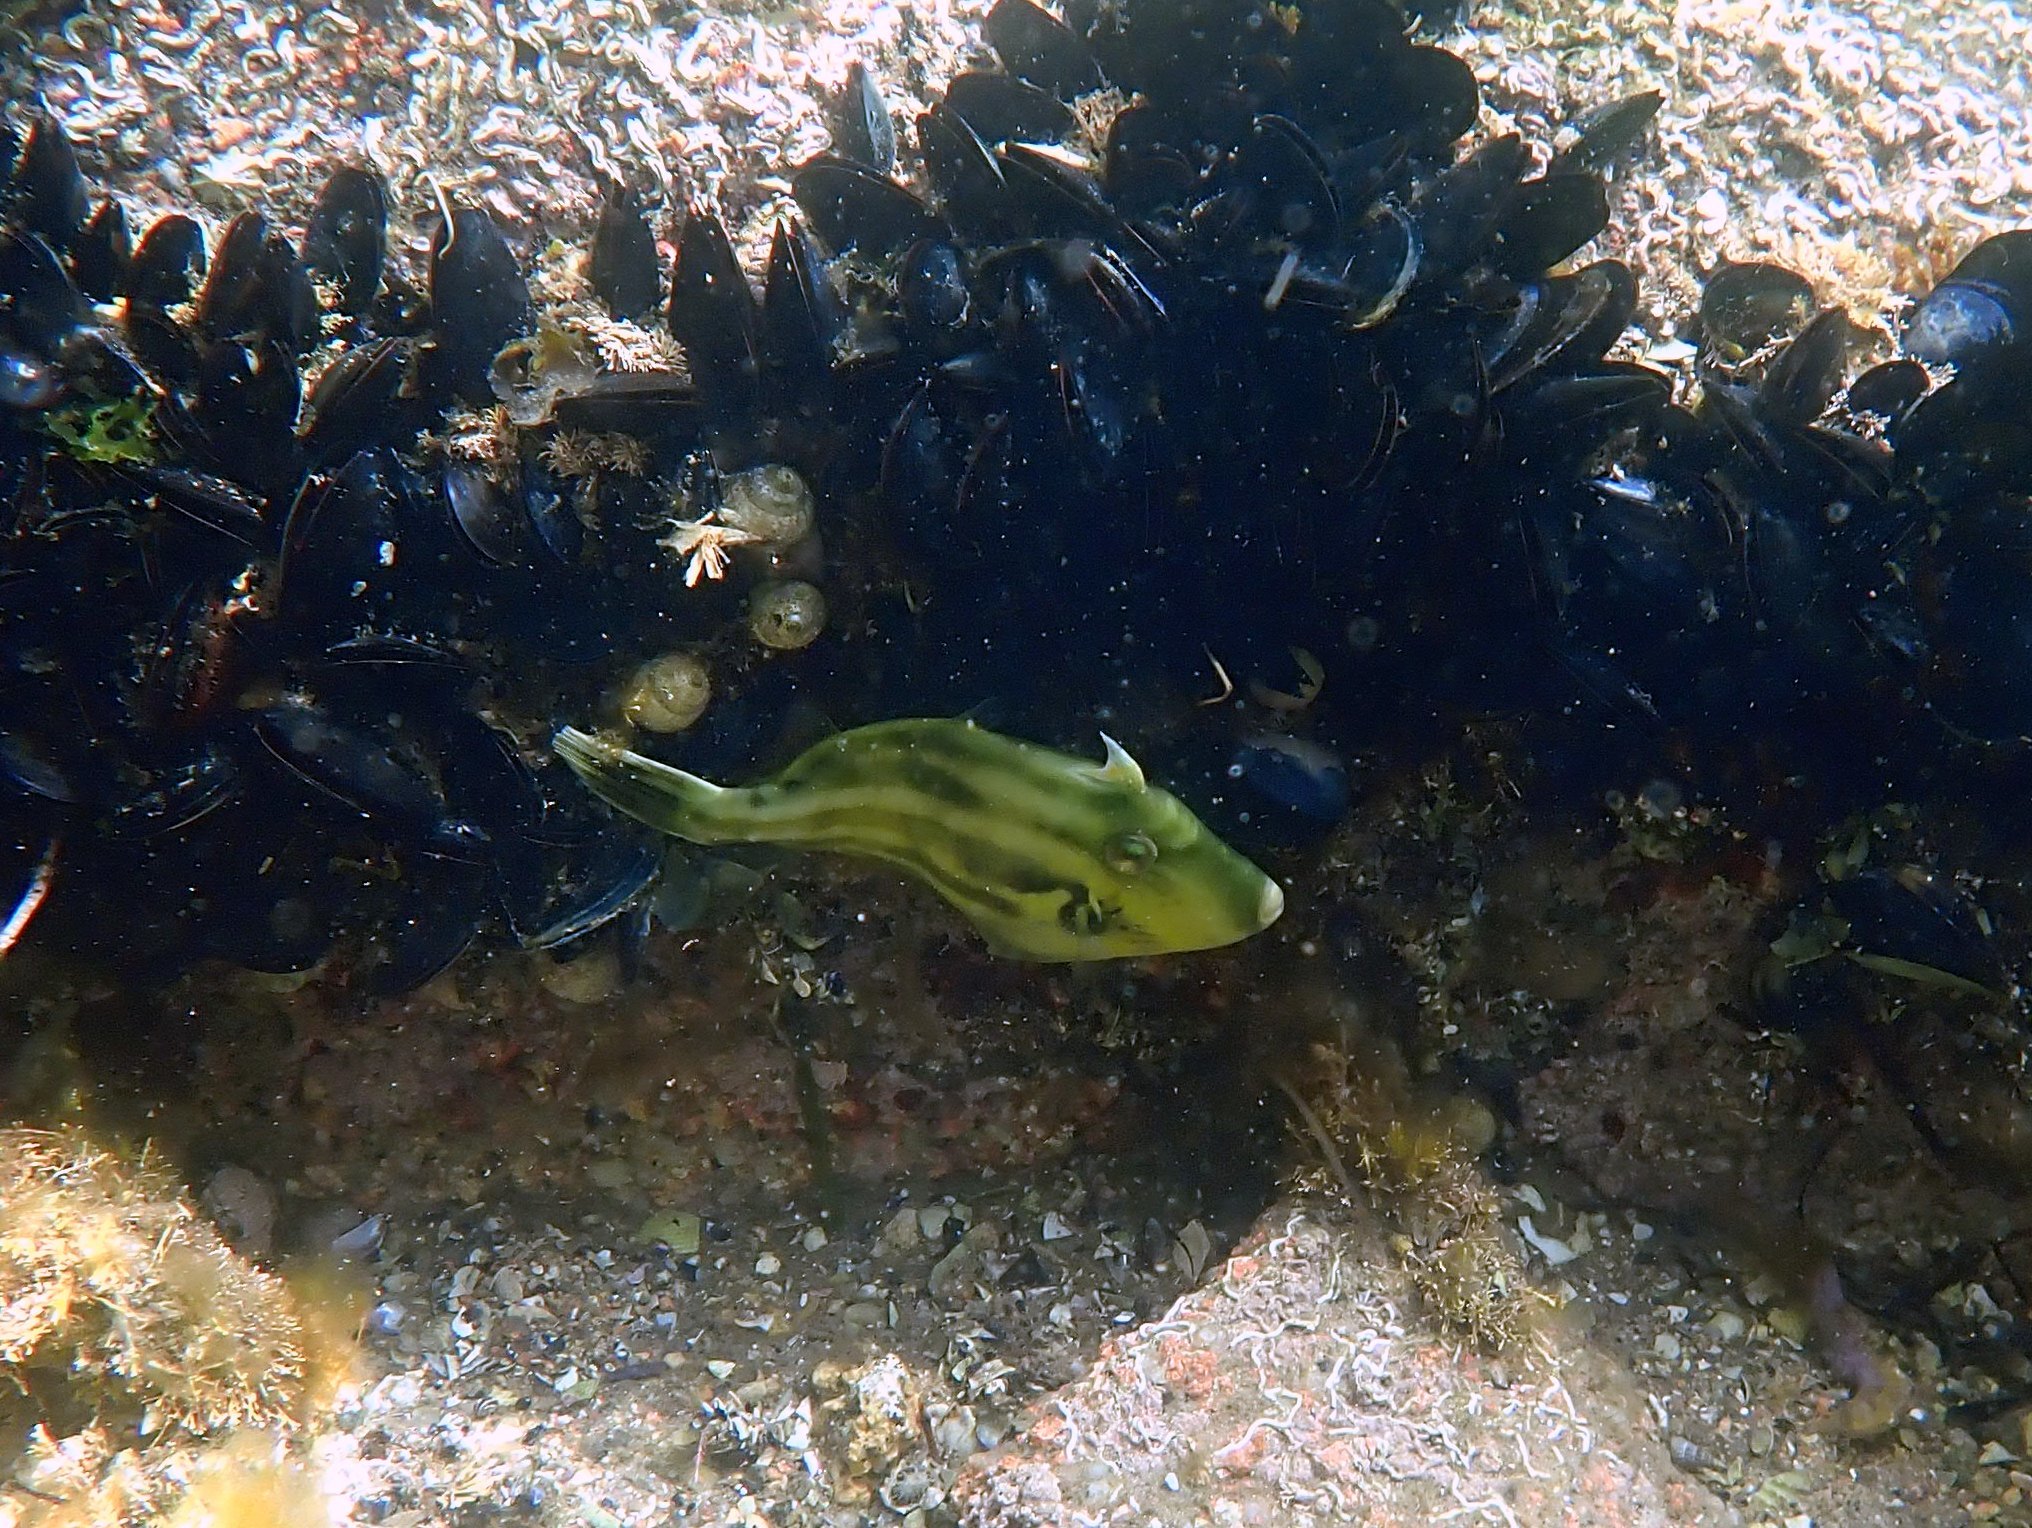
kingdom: Animalia
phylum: Chordata
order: Tetraodontiformes
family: Monacanthidae
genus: Meuschenia
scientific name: Meuschenia australis
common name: Brownstriped leatherjacket
